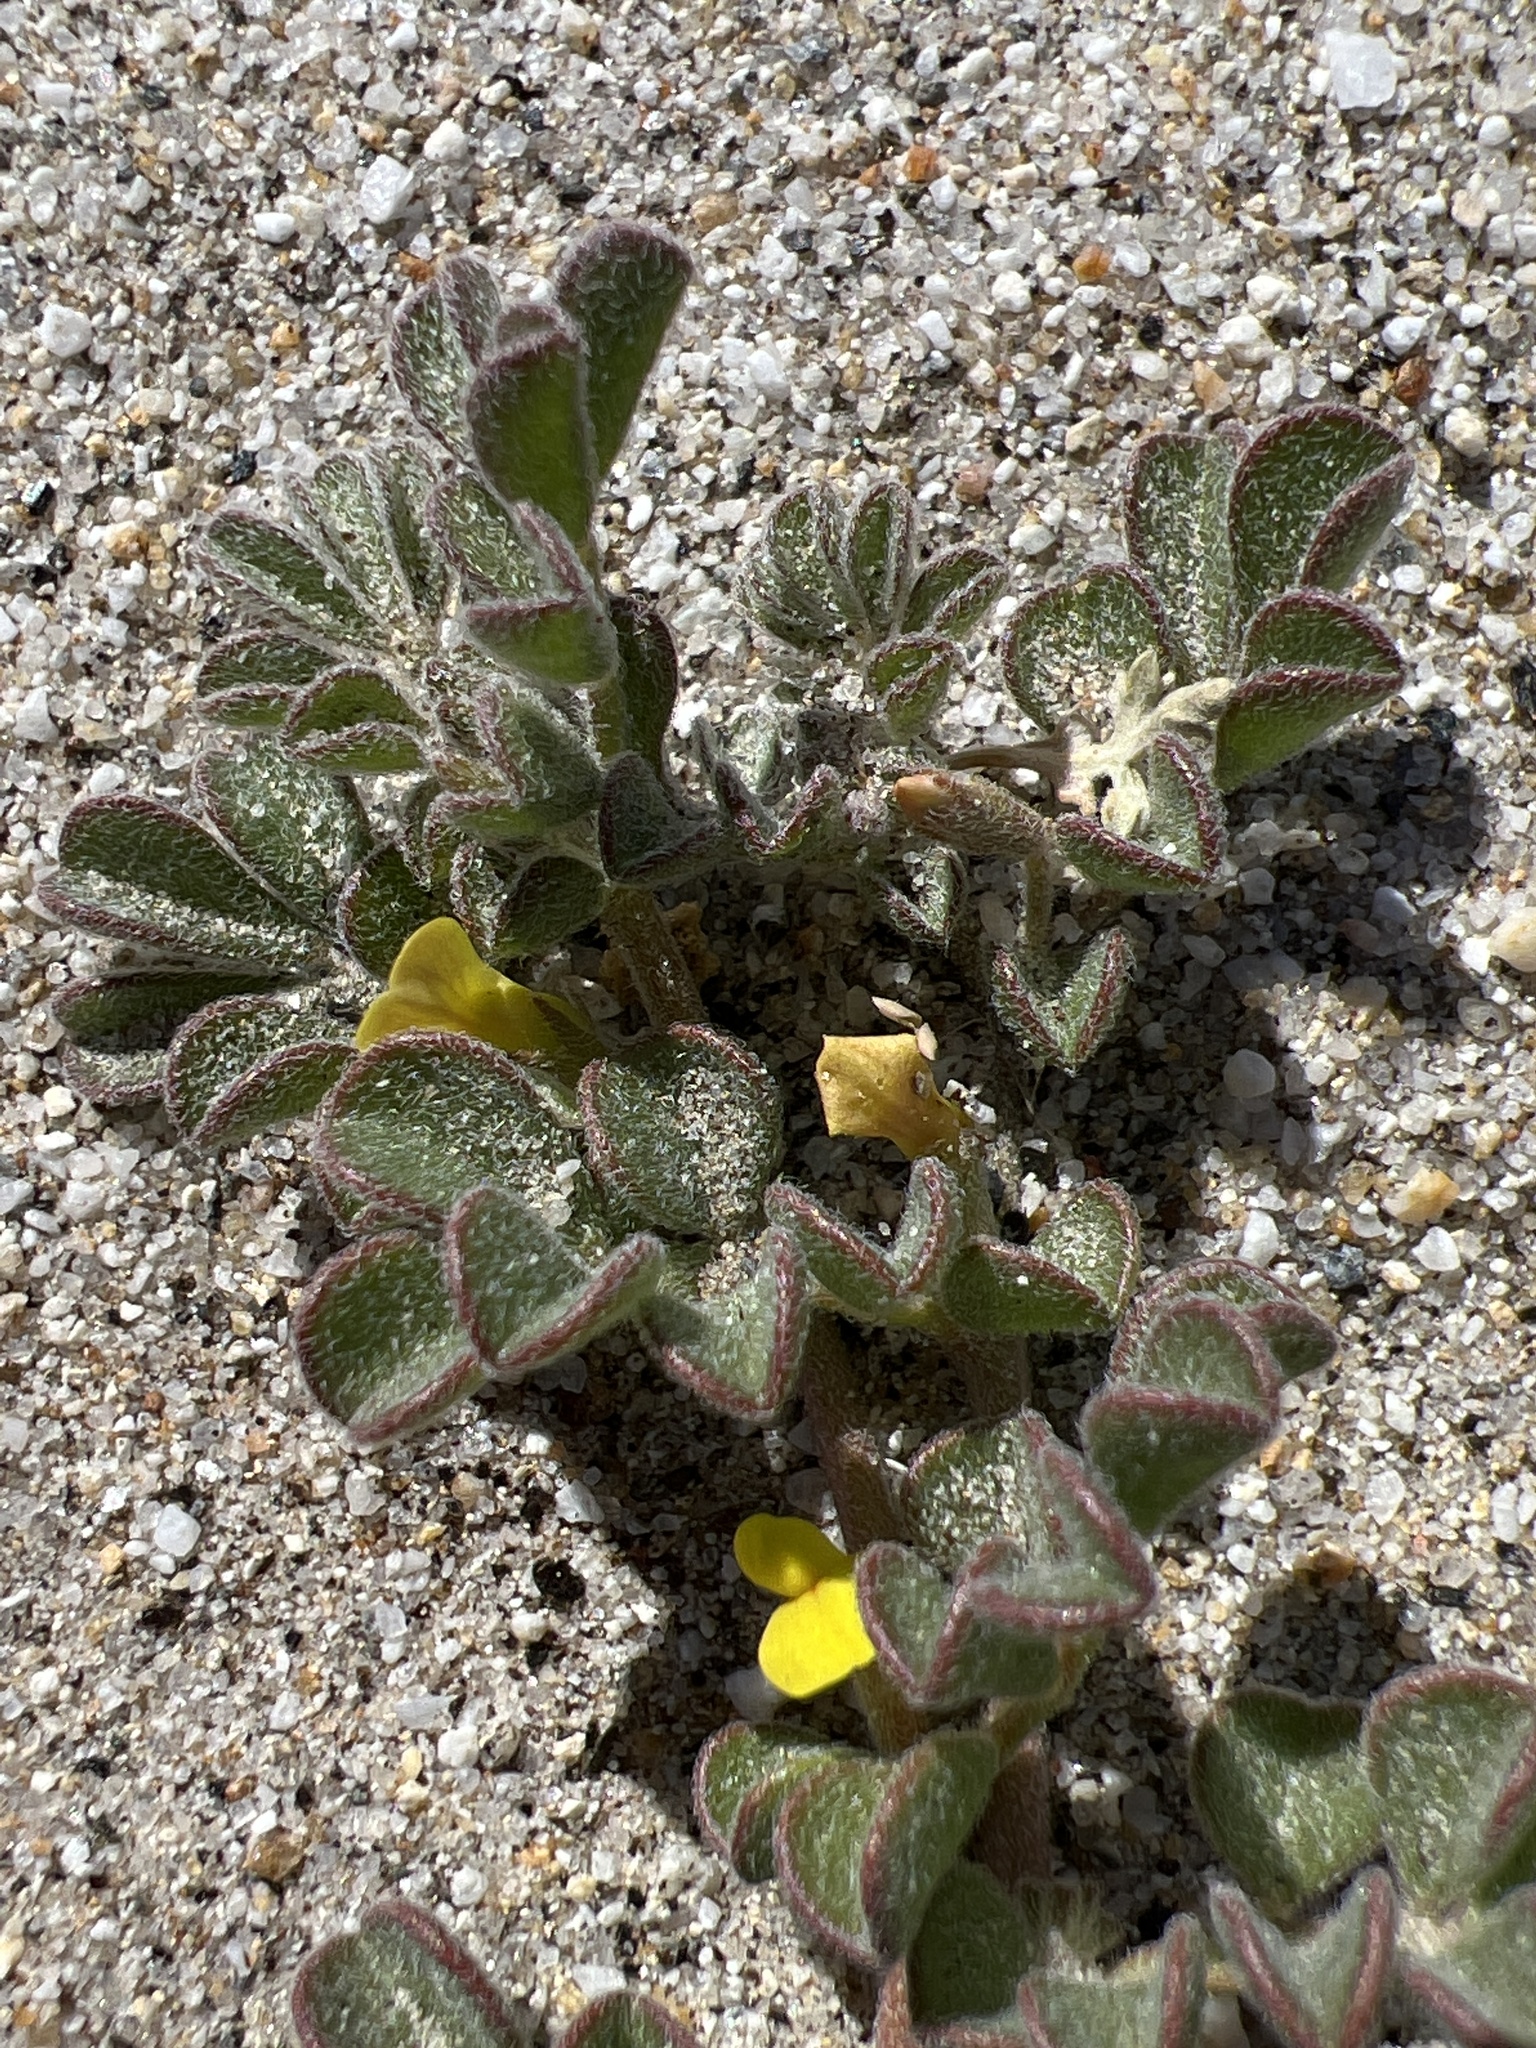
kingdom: Plantae
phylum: Tracheophyta
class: Magnoliopsida
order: Fabales
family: Fabaceae
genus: Acmispon
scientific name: Acmispon strigosus
